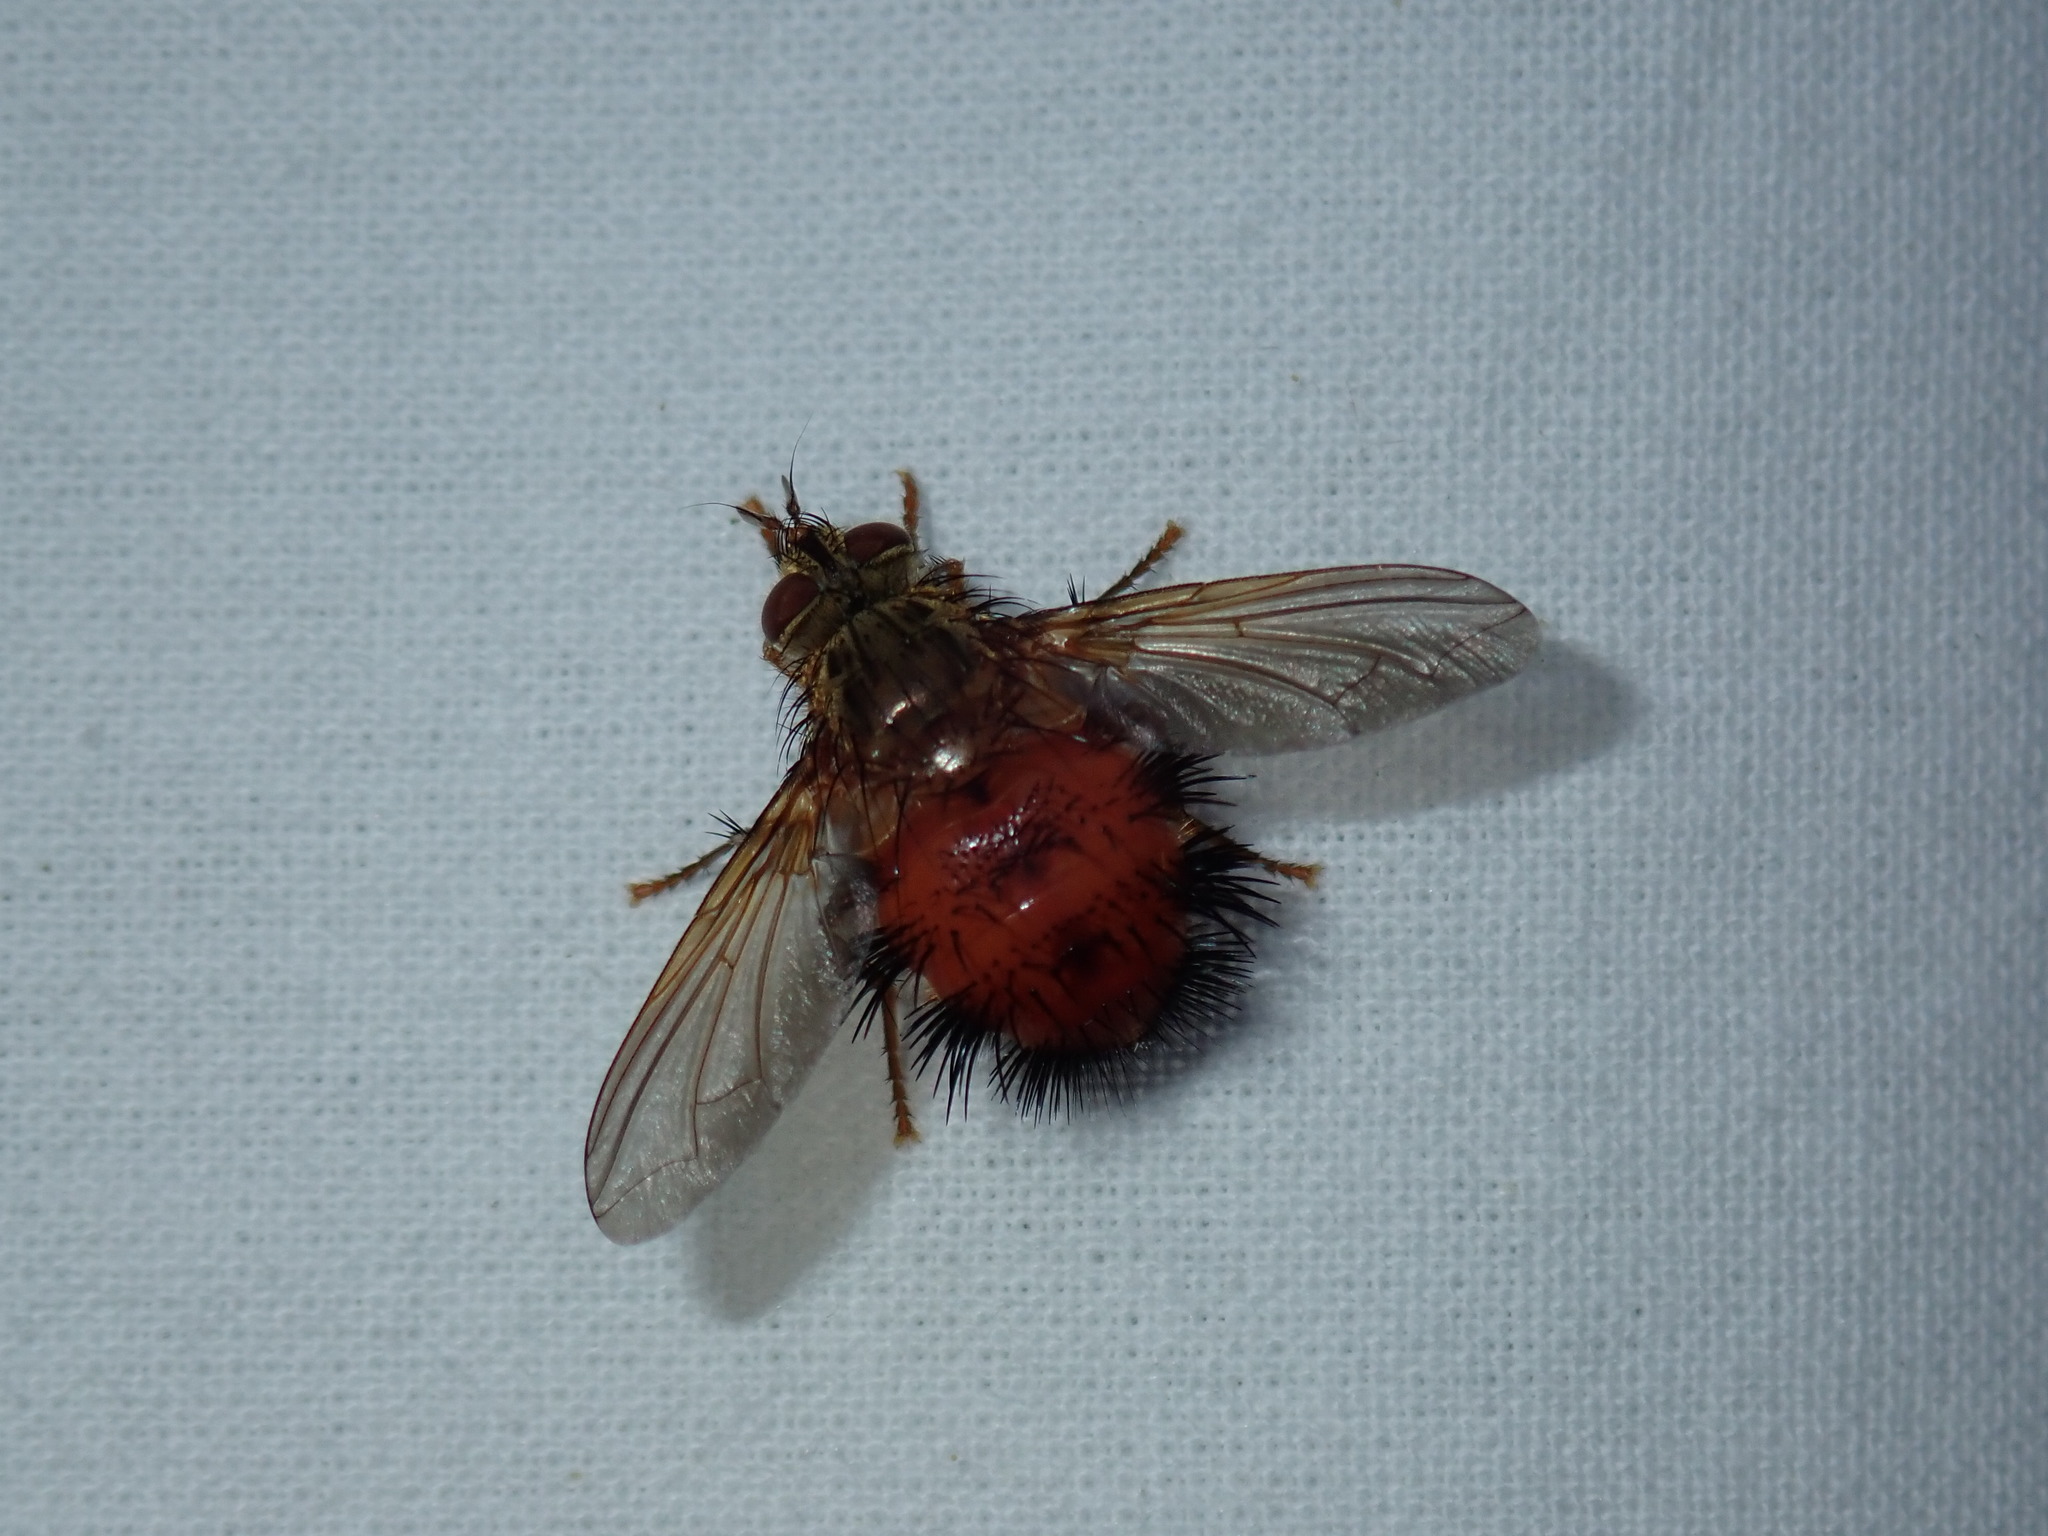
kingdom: Animalia
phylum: Arthropoda
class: Insecta
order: Diptera
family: Tachinidae
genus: Hystricia
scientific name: Hystricia abrupta
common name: Tomato bristle fly
